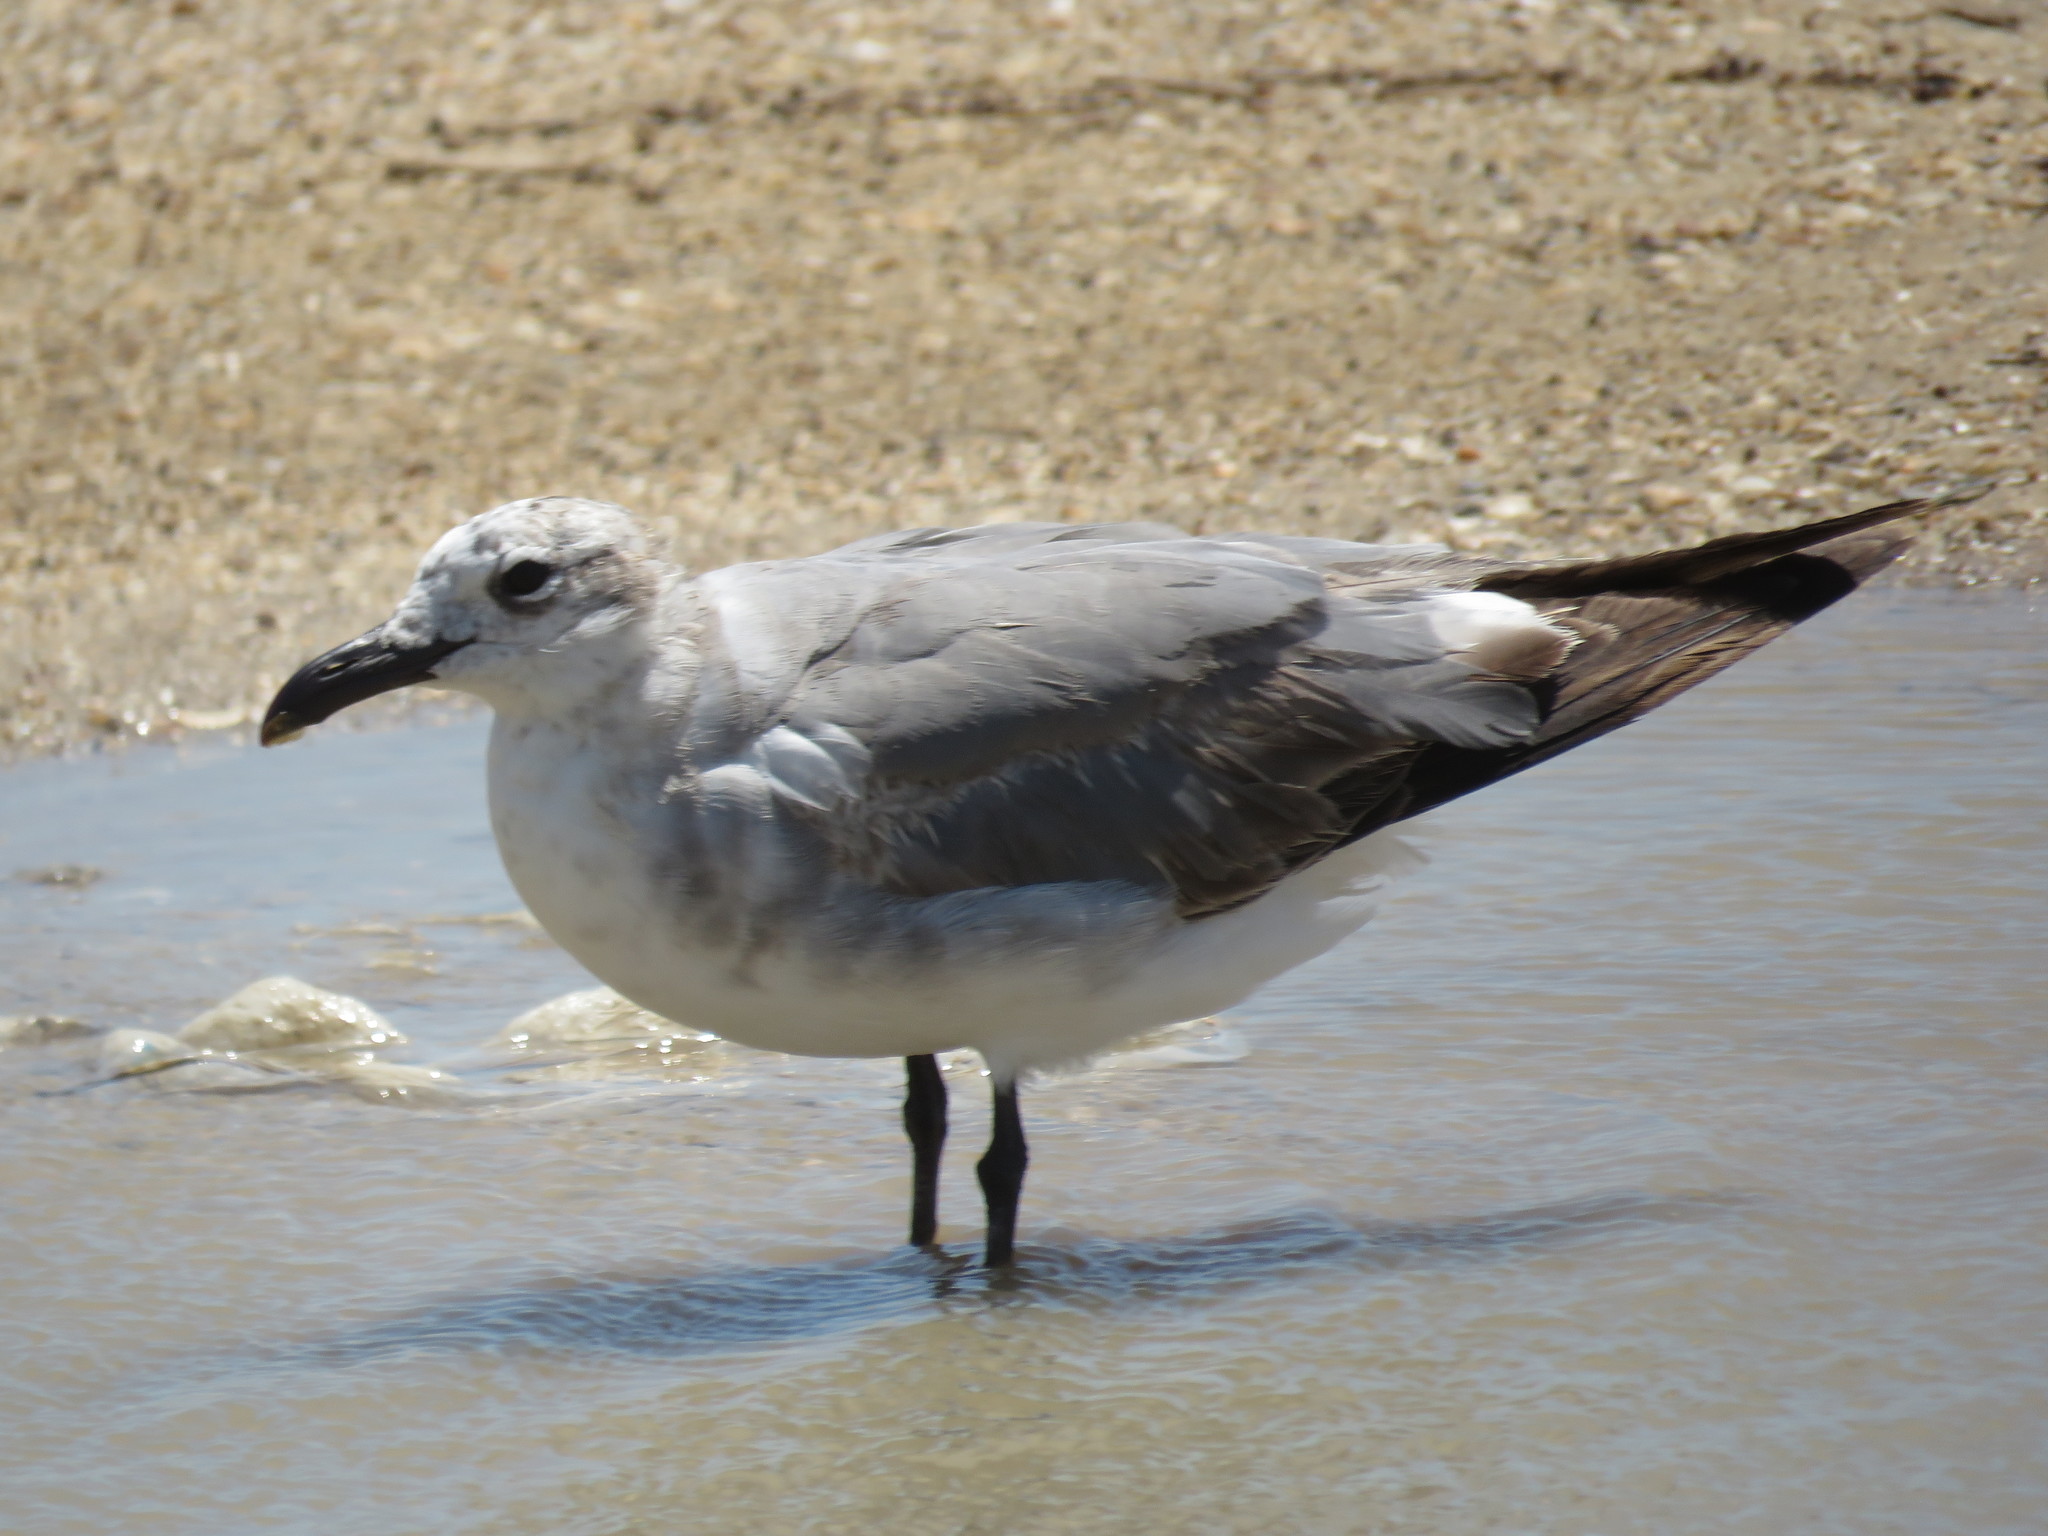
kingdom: Animalia
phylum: Chordata
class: Aves
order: Charadriiformes
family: Laridae
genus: Leucophaeus
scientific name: Leucophaeus atricilla
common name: Laughing gull
